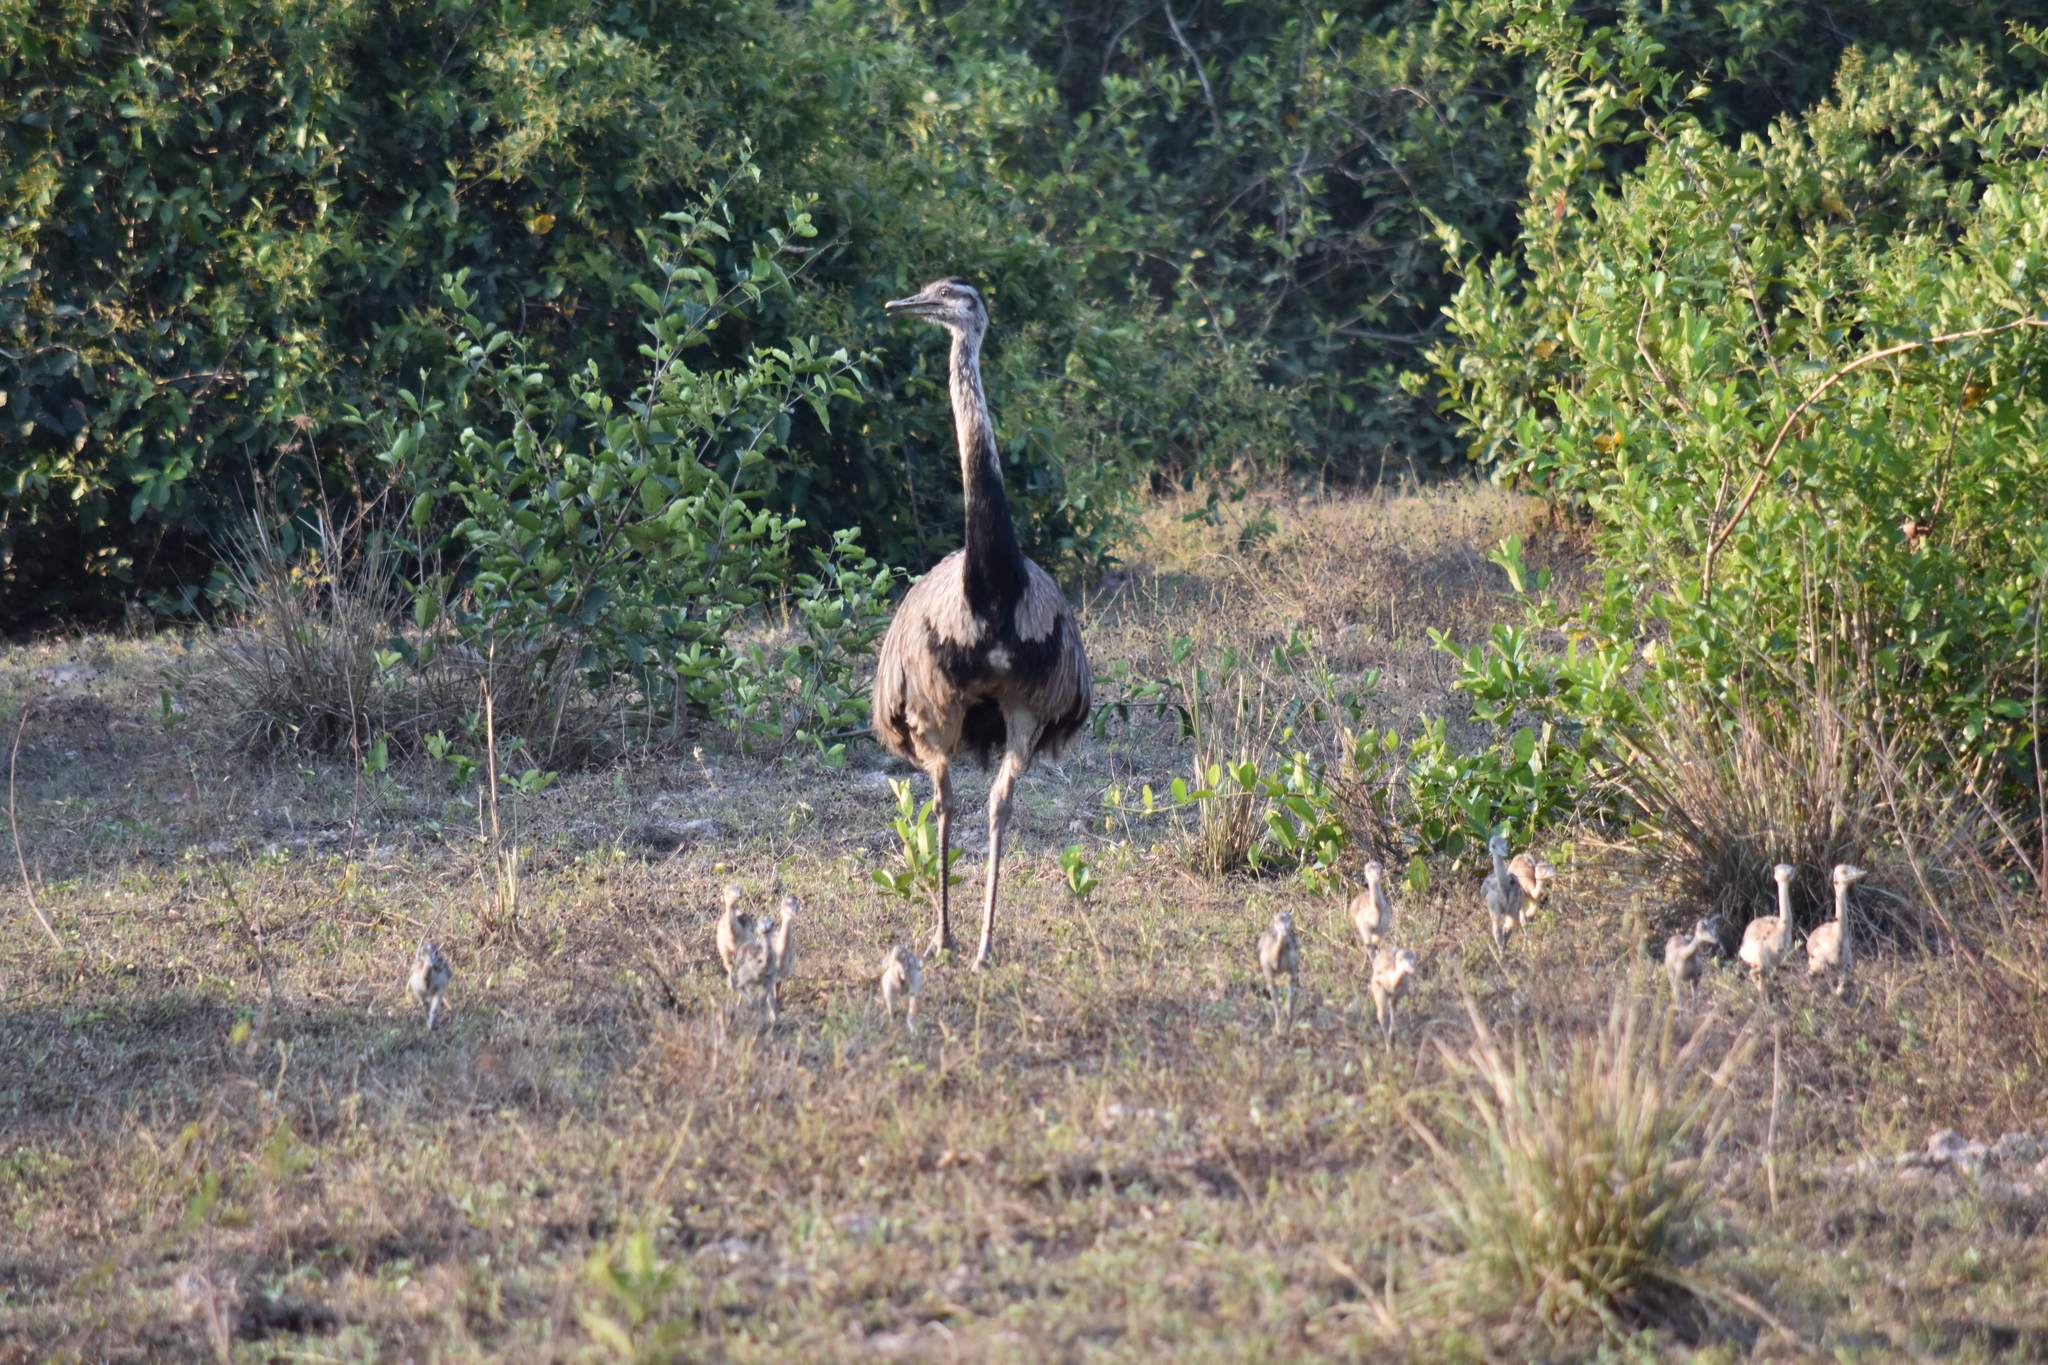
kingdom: Animalia
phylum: Chordata
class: Aves
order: Rheiformes
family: Rheidae
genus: Rhea
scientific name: Rhea americana
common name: Greater rhea
